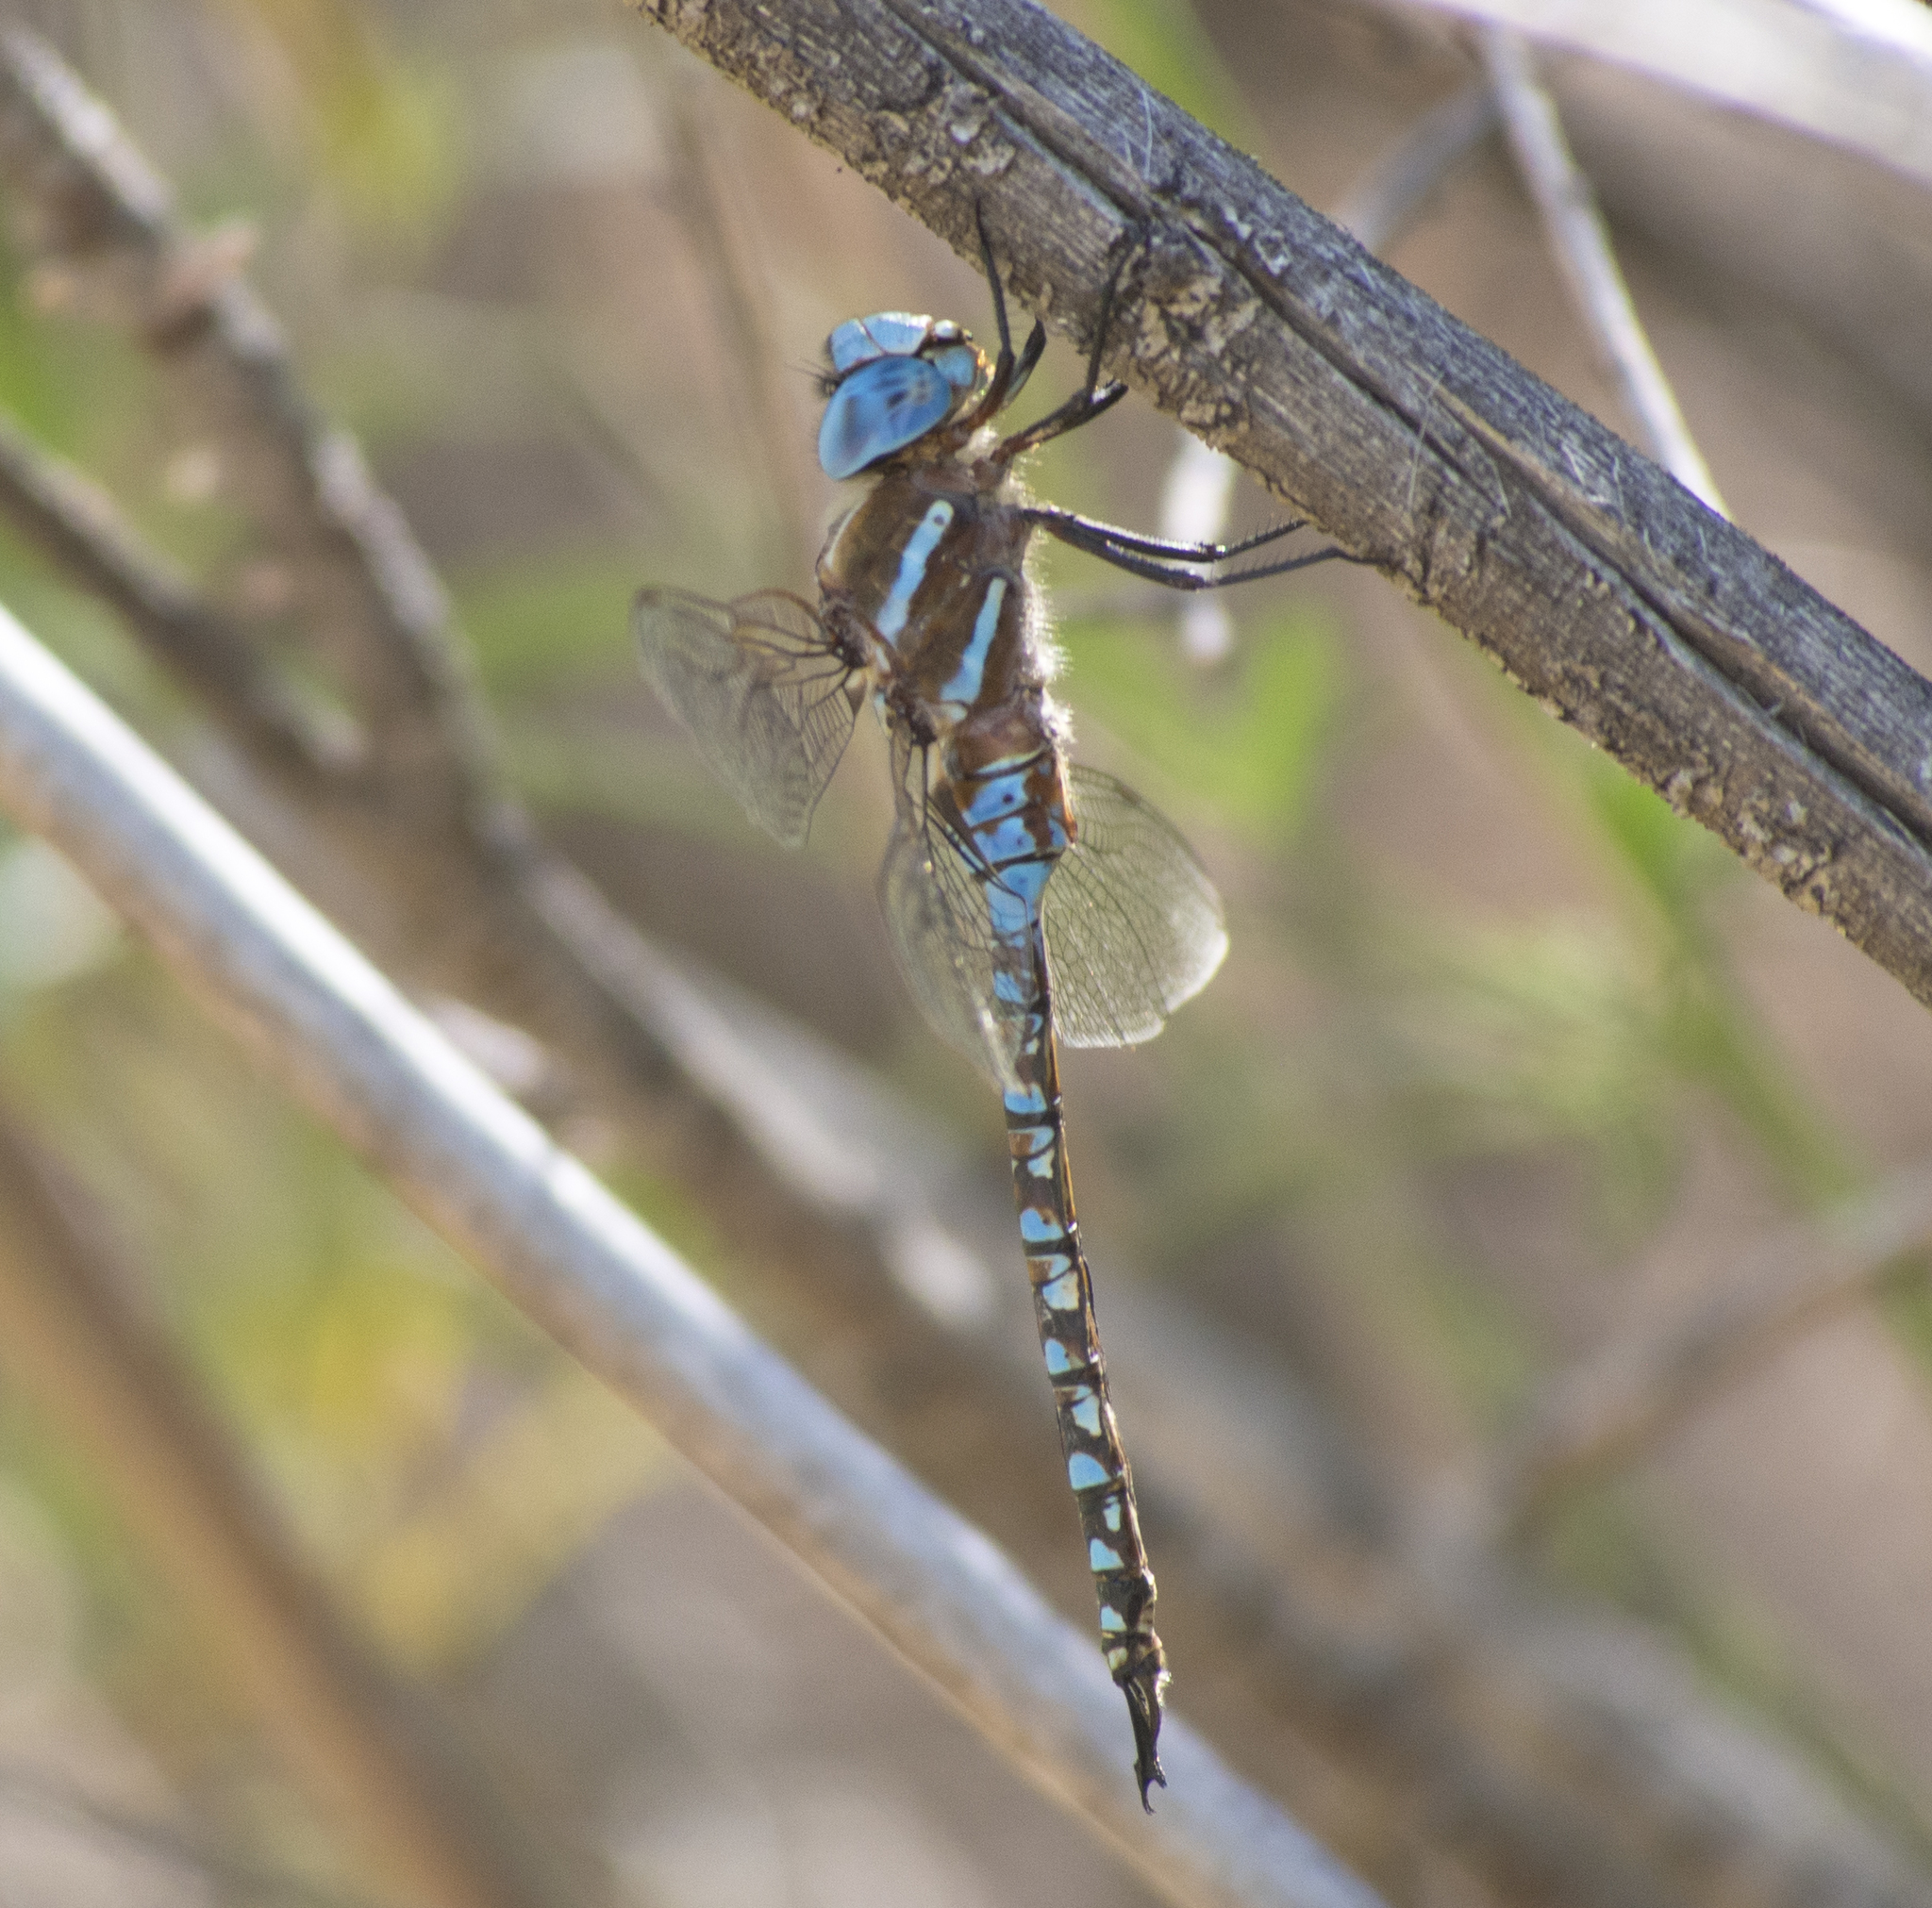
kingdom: Animalia
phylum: Arthropoda
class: Insecta
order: Odonata
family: Aeshnidae
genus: Rhionaeschna
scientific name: Rhionaeschna multicolor
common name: Blue-eyed darner
